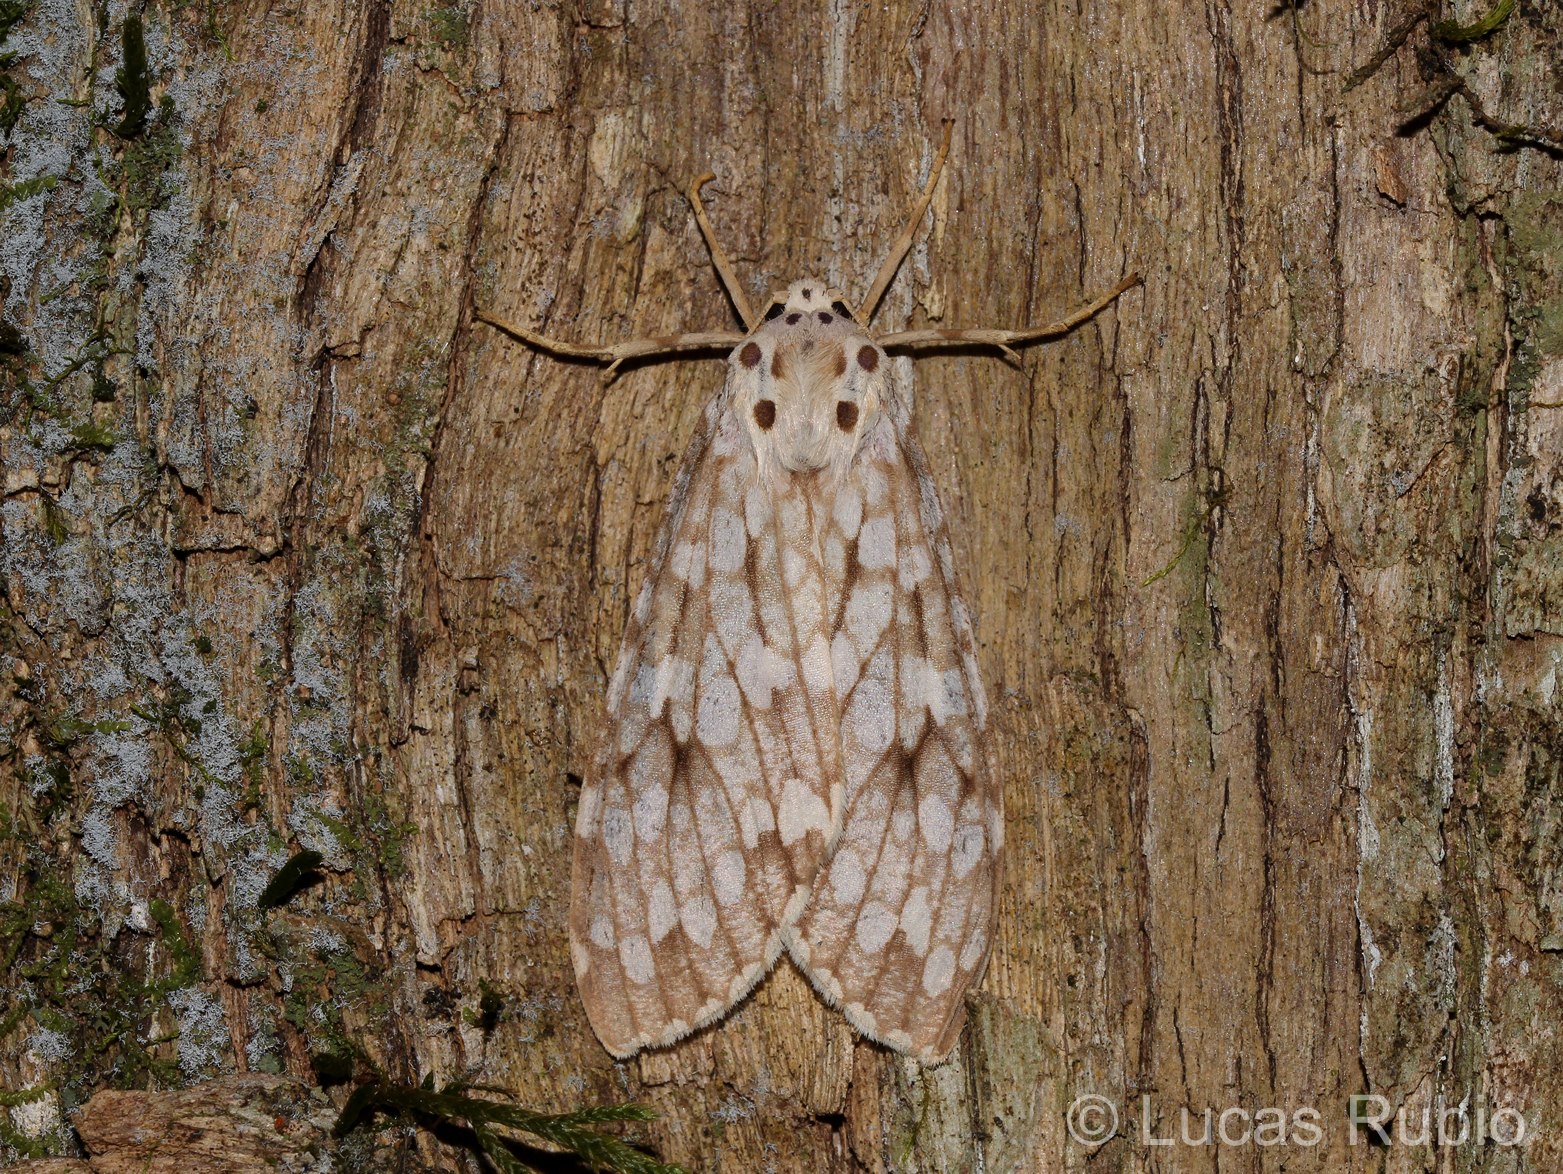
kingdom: Animalia
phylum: Arthropoda
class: Insecta
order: Lepidoptera
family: Erebidae
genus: Carales
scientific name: Carales astur
